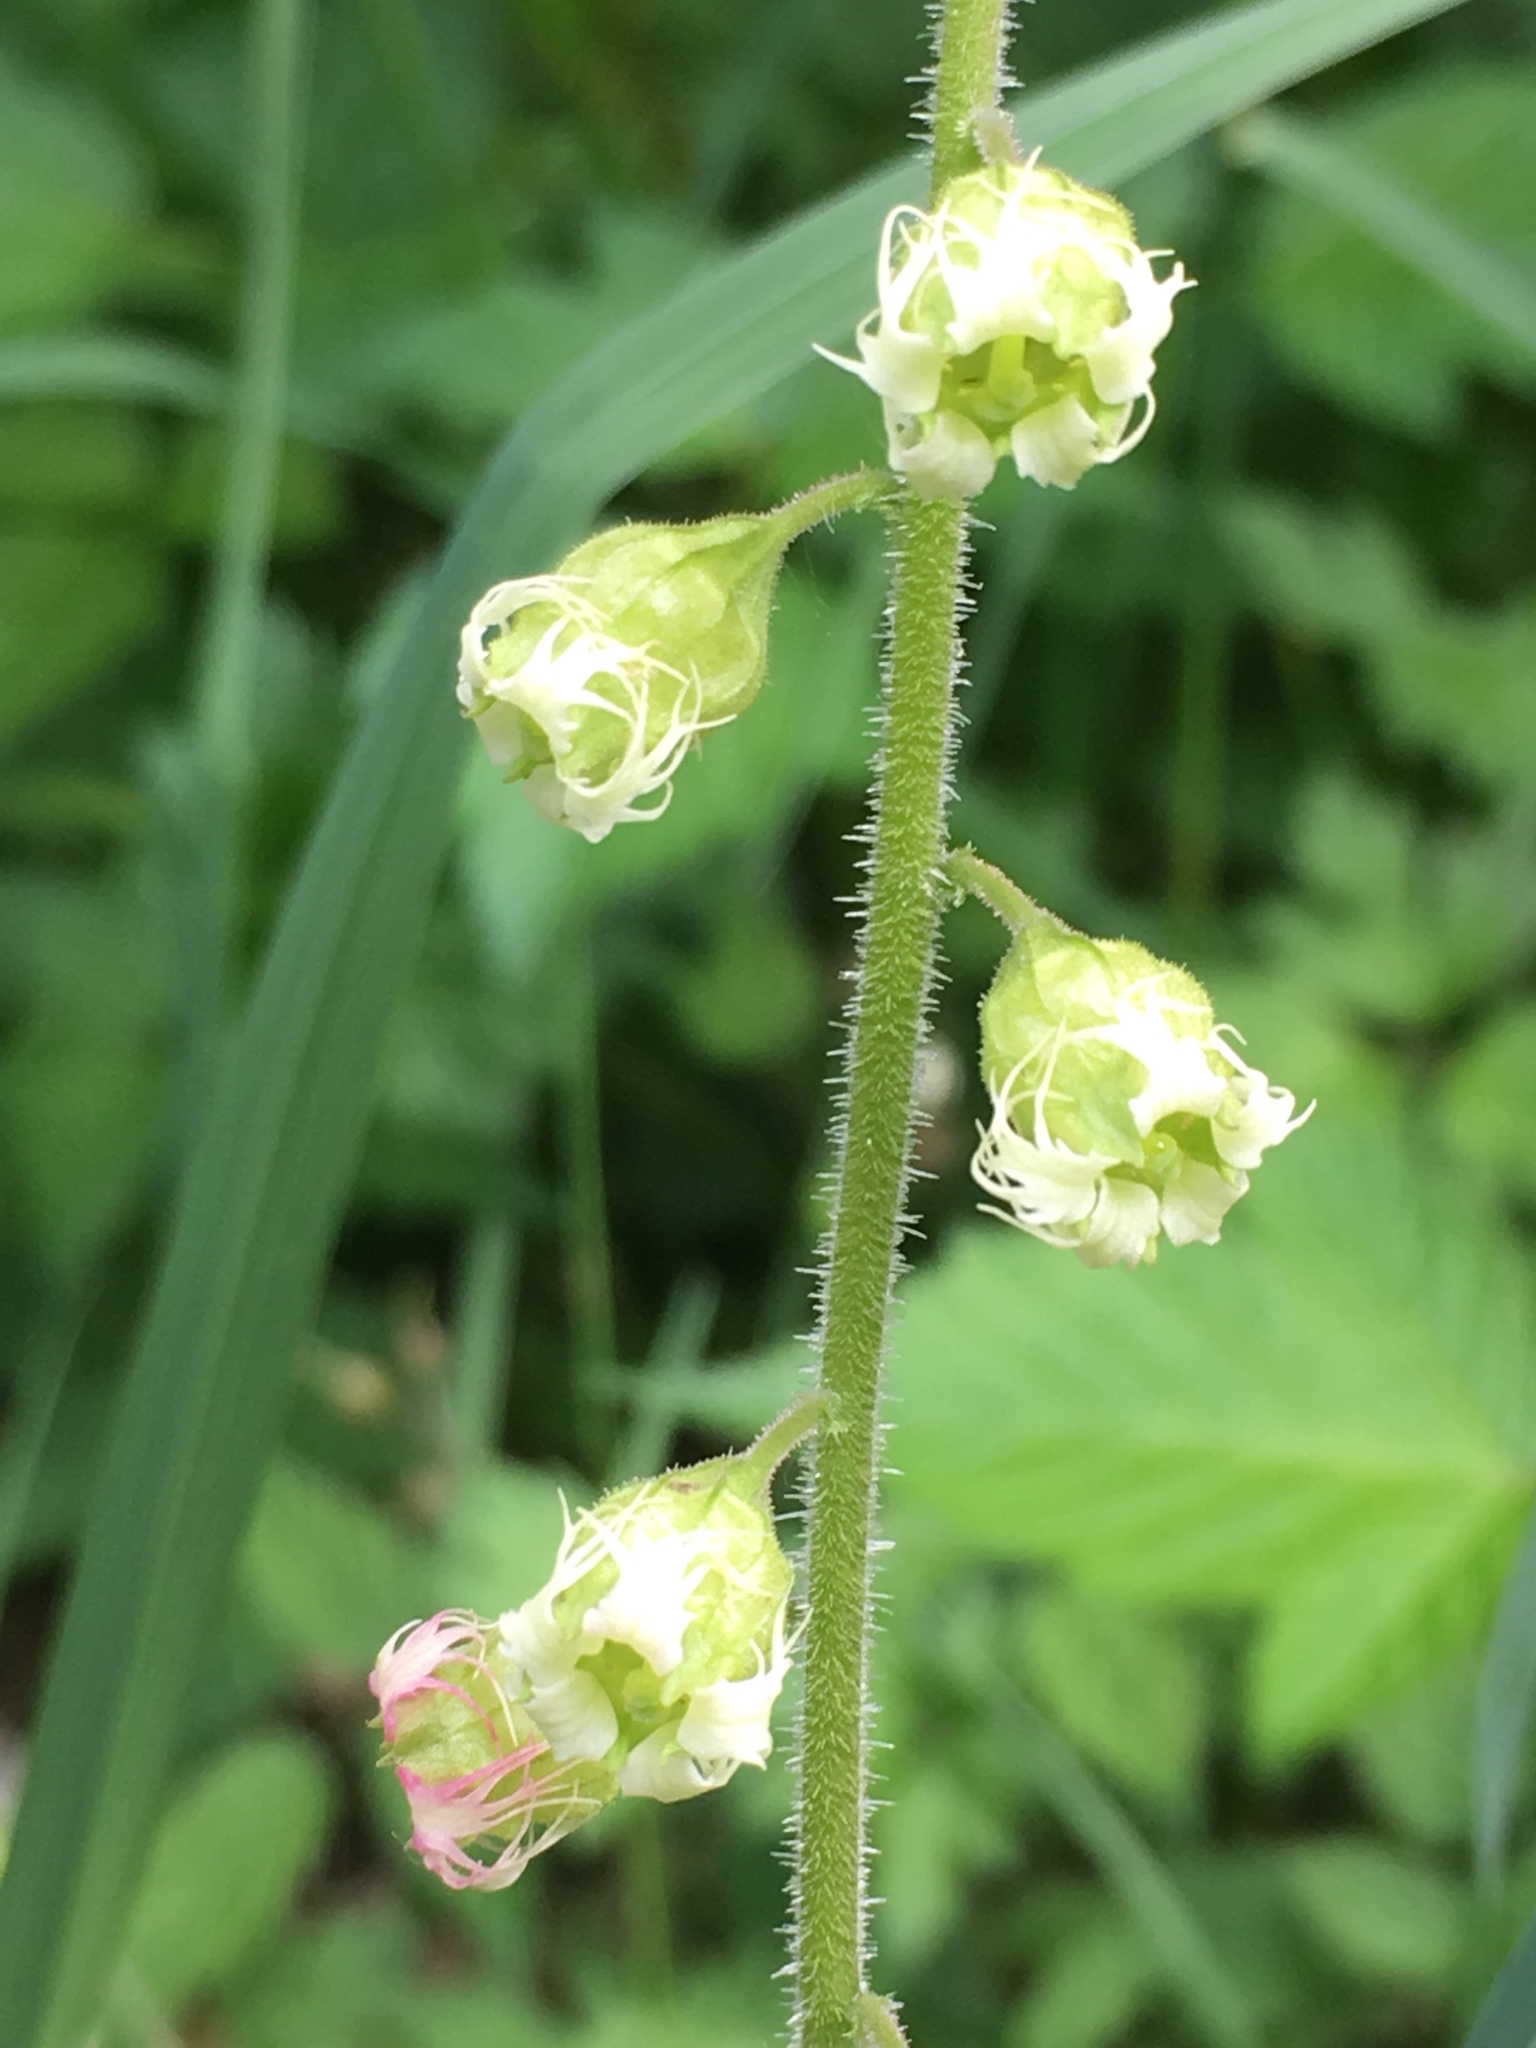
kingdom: Plantae
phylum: Tracheophyta
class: Magnoliopsida
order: Saxifragales
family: Saxifragaceae
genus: Tellima
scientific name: Tellima grandiflora
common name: Fringecups
